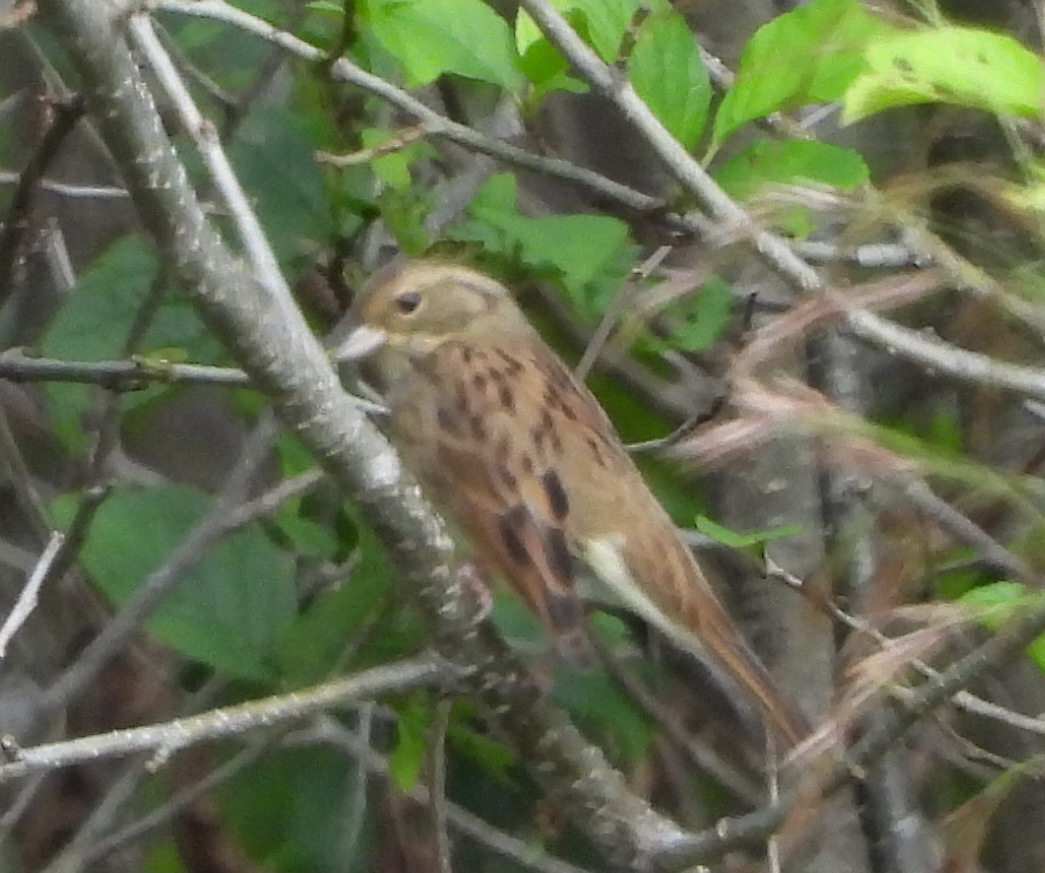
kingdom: Animalia
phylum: Chordata
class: Aves
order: Passeriformes
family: Emberizidae
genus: Emberiza
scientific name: Emberiza spodocephala
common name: Black-faced bunting
